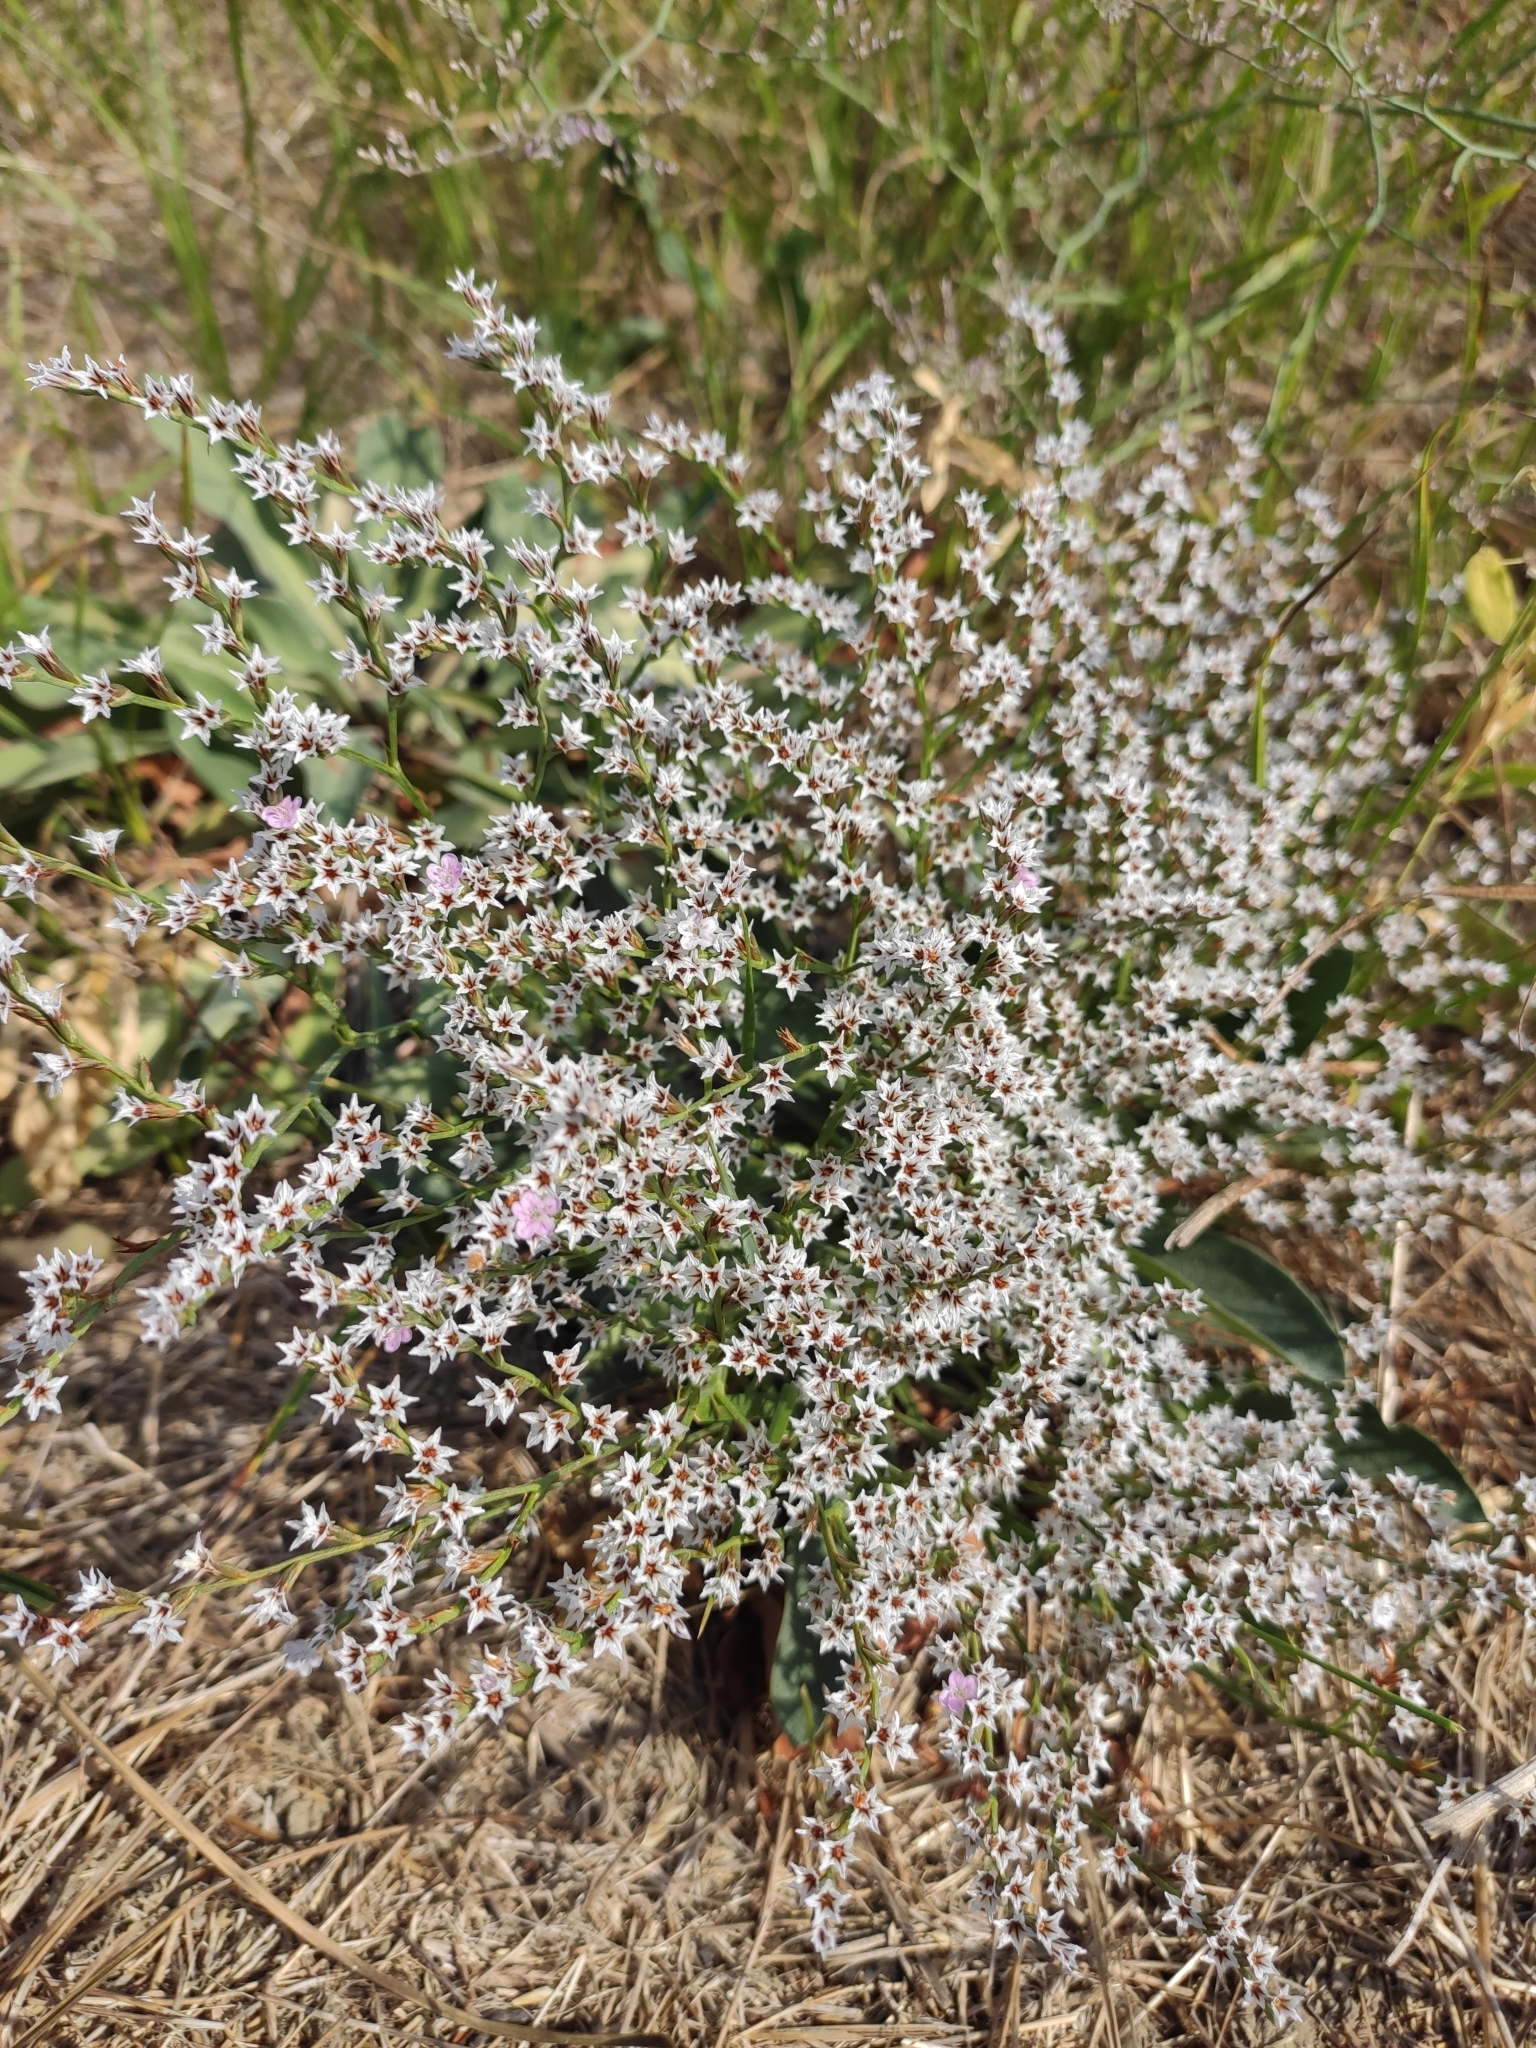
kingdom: Plantae
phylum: Tracheophyta
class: Magnoliopsida
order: Caryophyllales
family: Plumbaginaceae
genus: Goniolimon
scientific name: Goniolimon tataricum
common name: Statice
